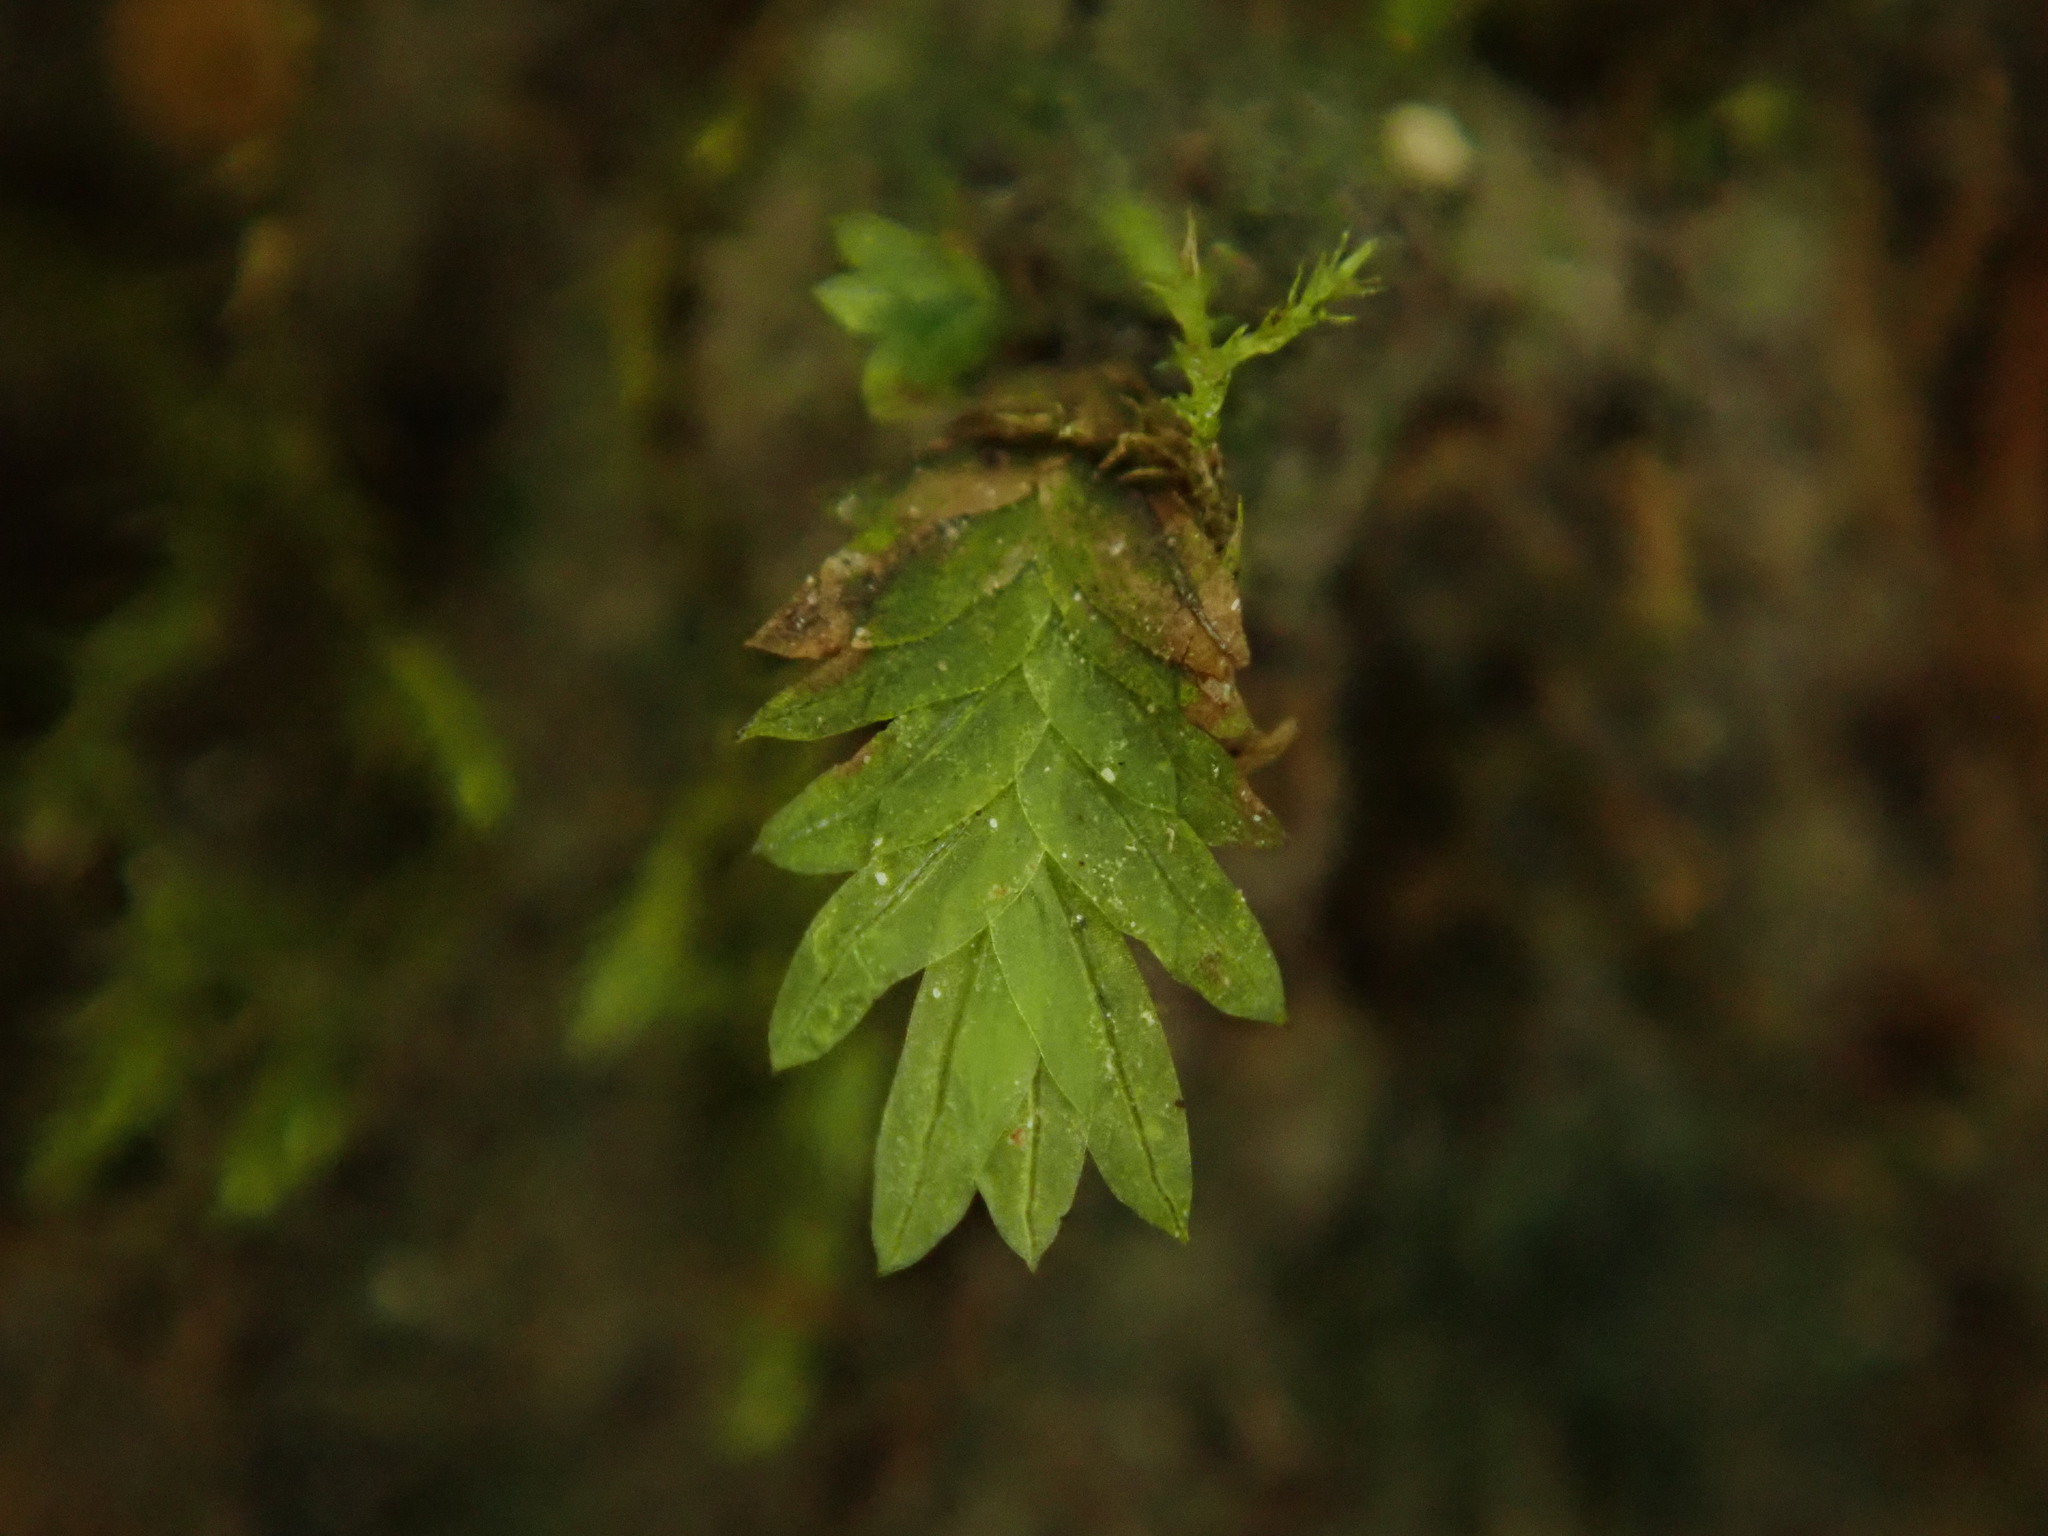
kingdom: Plantae
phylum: Bryophyta
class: Bryopsida
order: Dicranales
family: Fissidentaceae
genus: Fissidens
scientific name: Fissidens taxifolius
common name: Yew-leaved pocket moss
